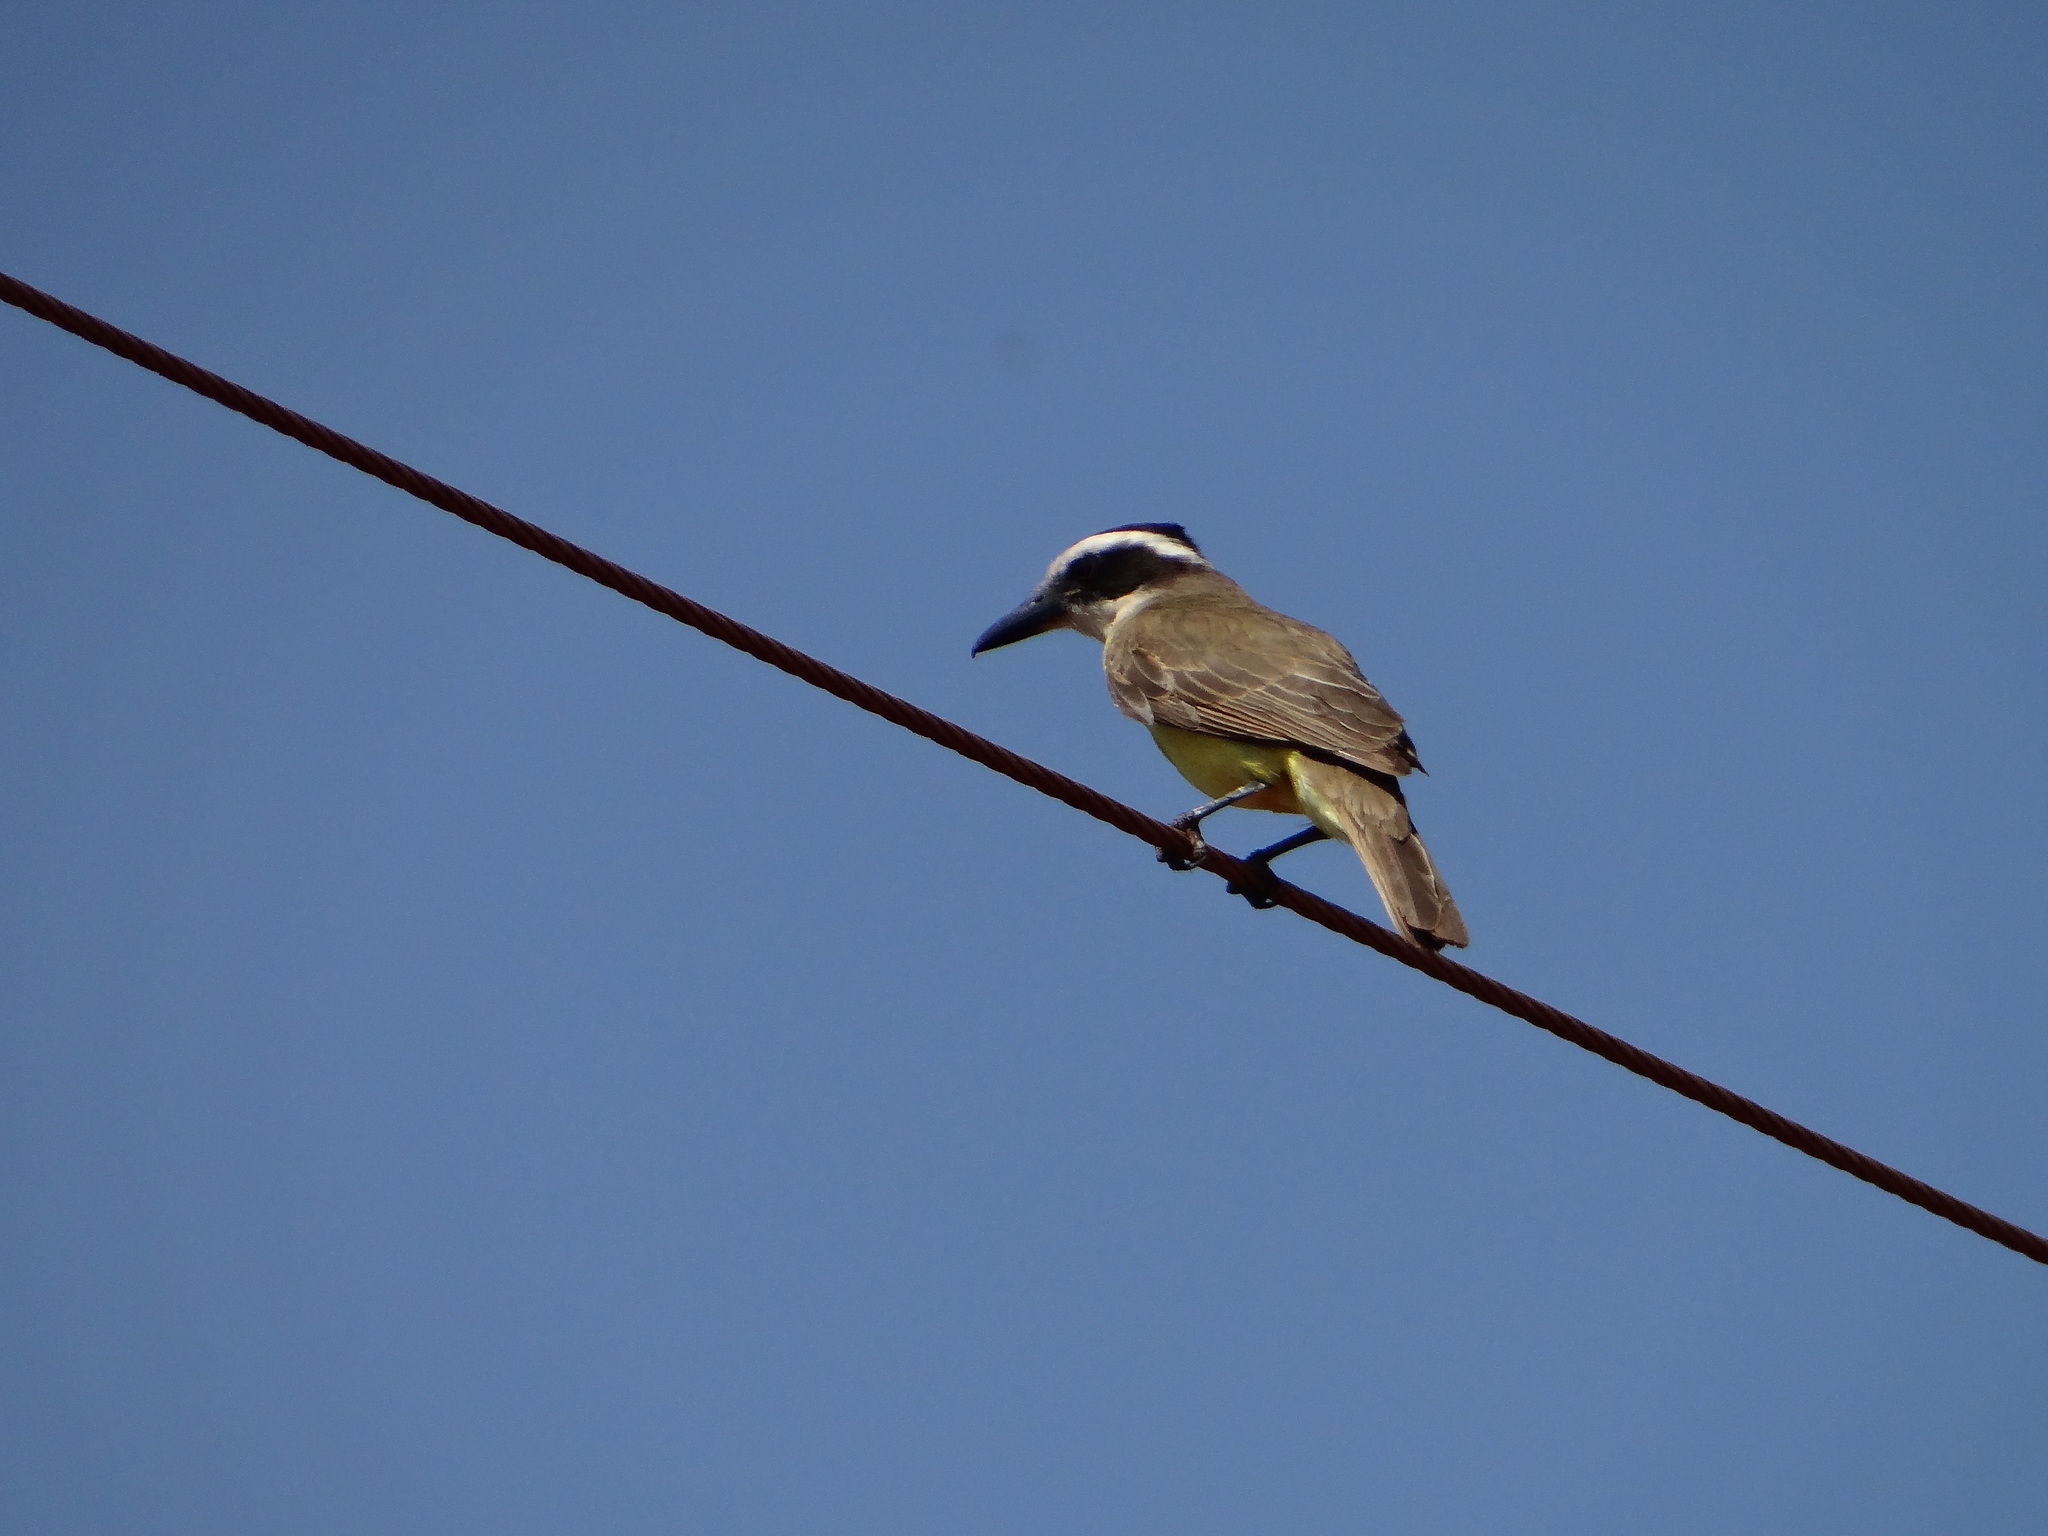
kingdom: Animalia
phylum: Chordata
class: Aves
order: Passeriformes
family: Tyrannidae
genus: Megarynchus
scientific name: Megarynchus pitangua
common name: Boat-billed flycatcher
